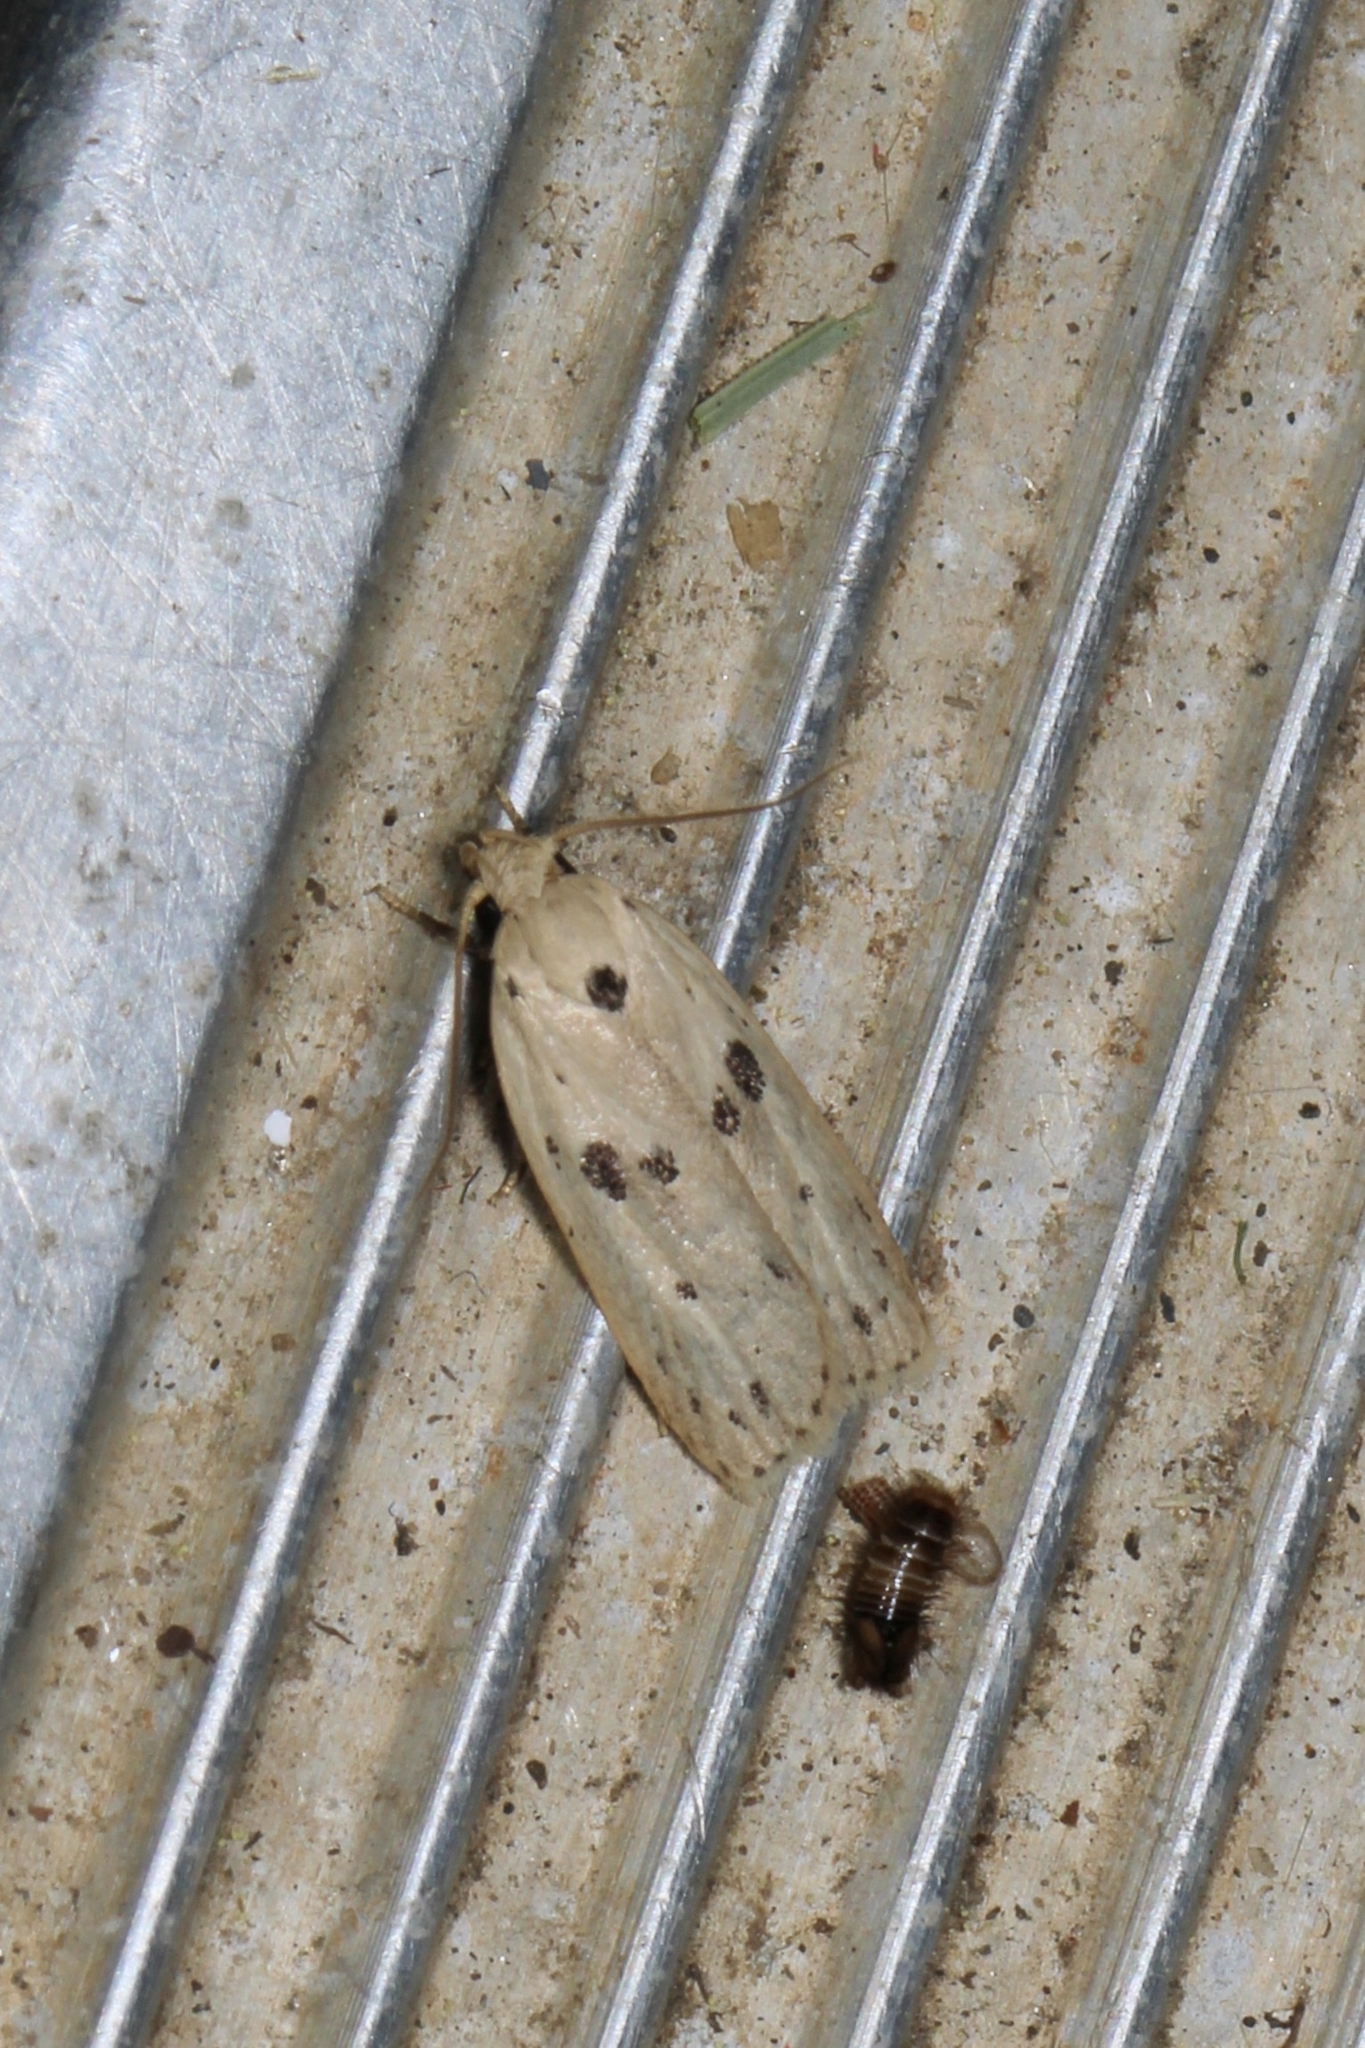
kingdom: Animalia
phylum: Arthropoda
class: Insecta
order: Lepidoptera
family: Peleopodidae
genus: Scythropiodes
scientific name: Scythropiodes issikii
